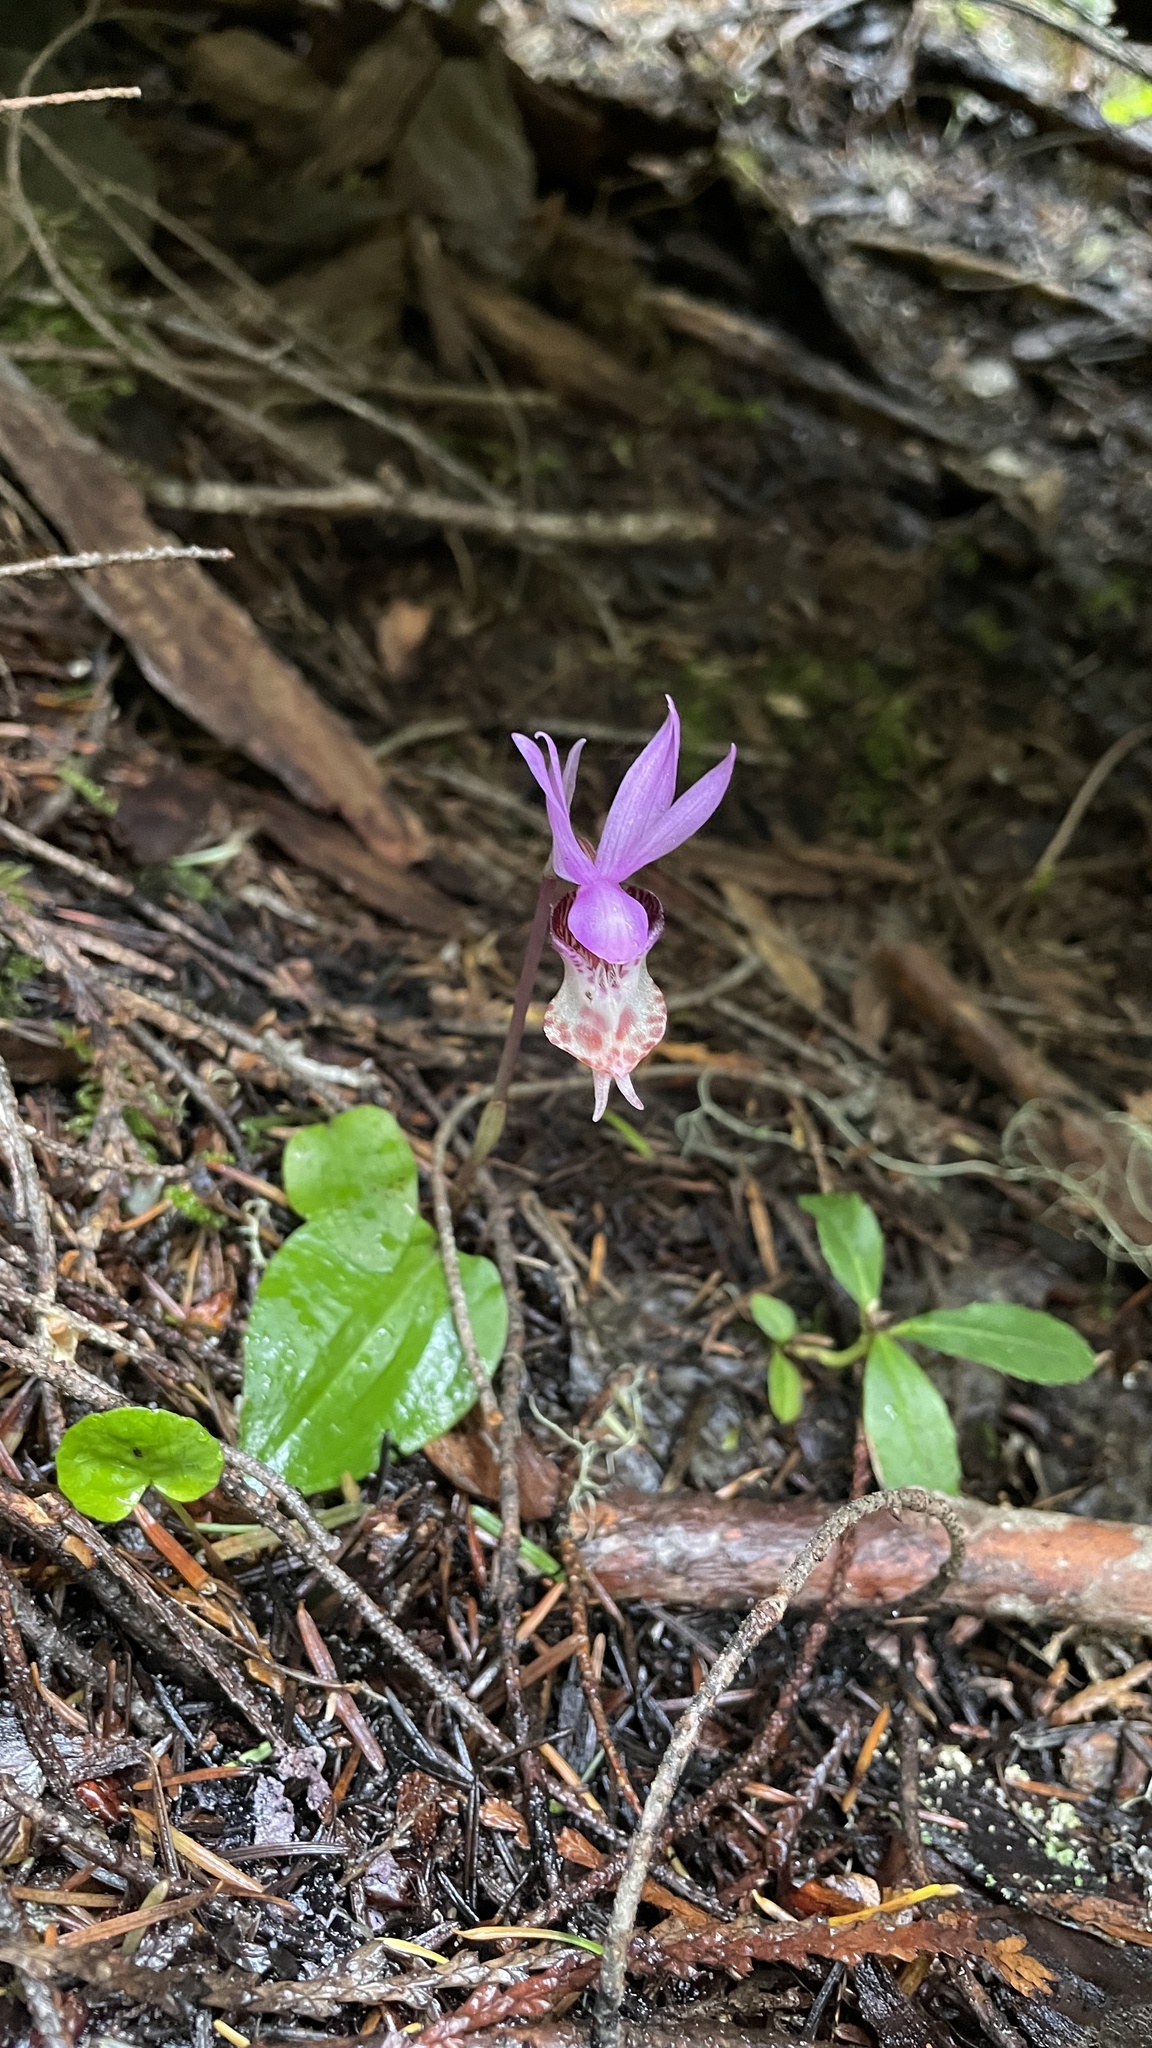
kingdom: Plantae
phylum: Tracheophyta
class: Liliopsida
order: Asparagales
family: Orchidaceae
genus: Calypso
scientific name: Calypso bulbosa
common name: Calypso
